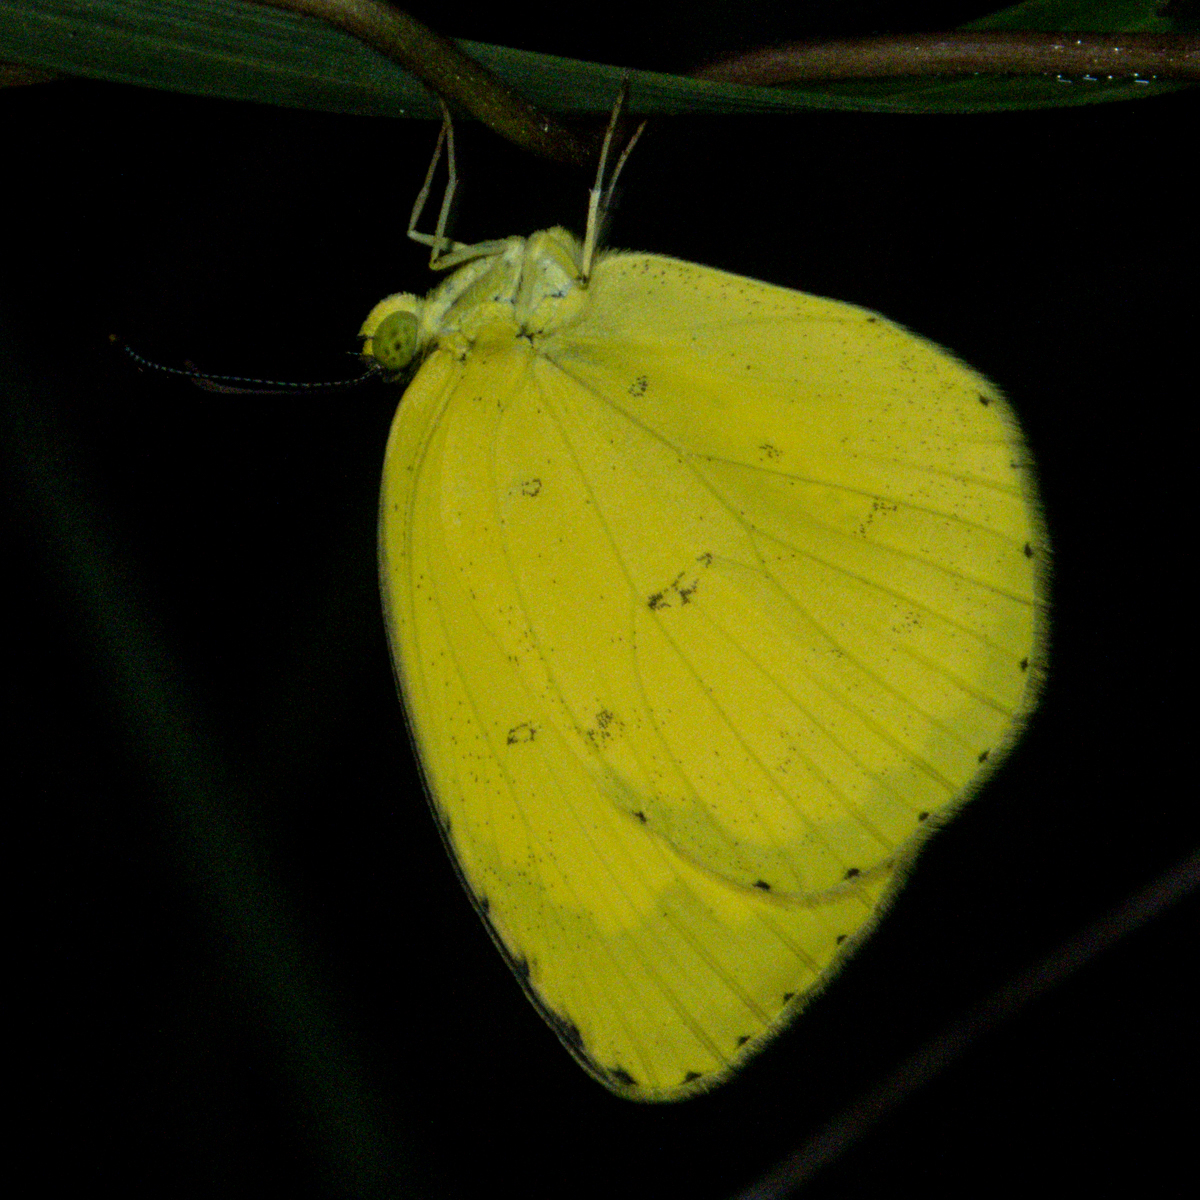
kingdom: Animalia
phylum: Arthropoda
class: Insecta
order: Lepidoptera
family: Pieridae
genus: Eurema
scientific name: Eurema hecabe
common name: Pale grass yellow
